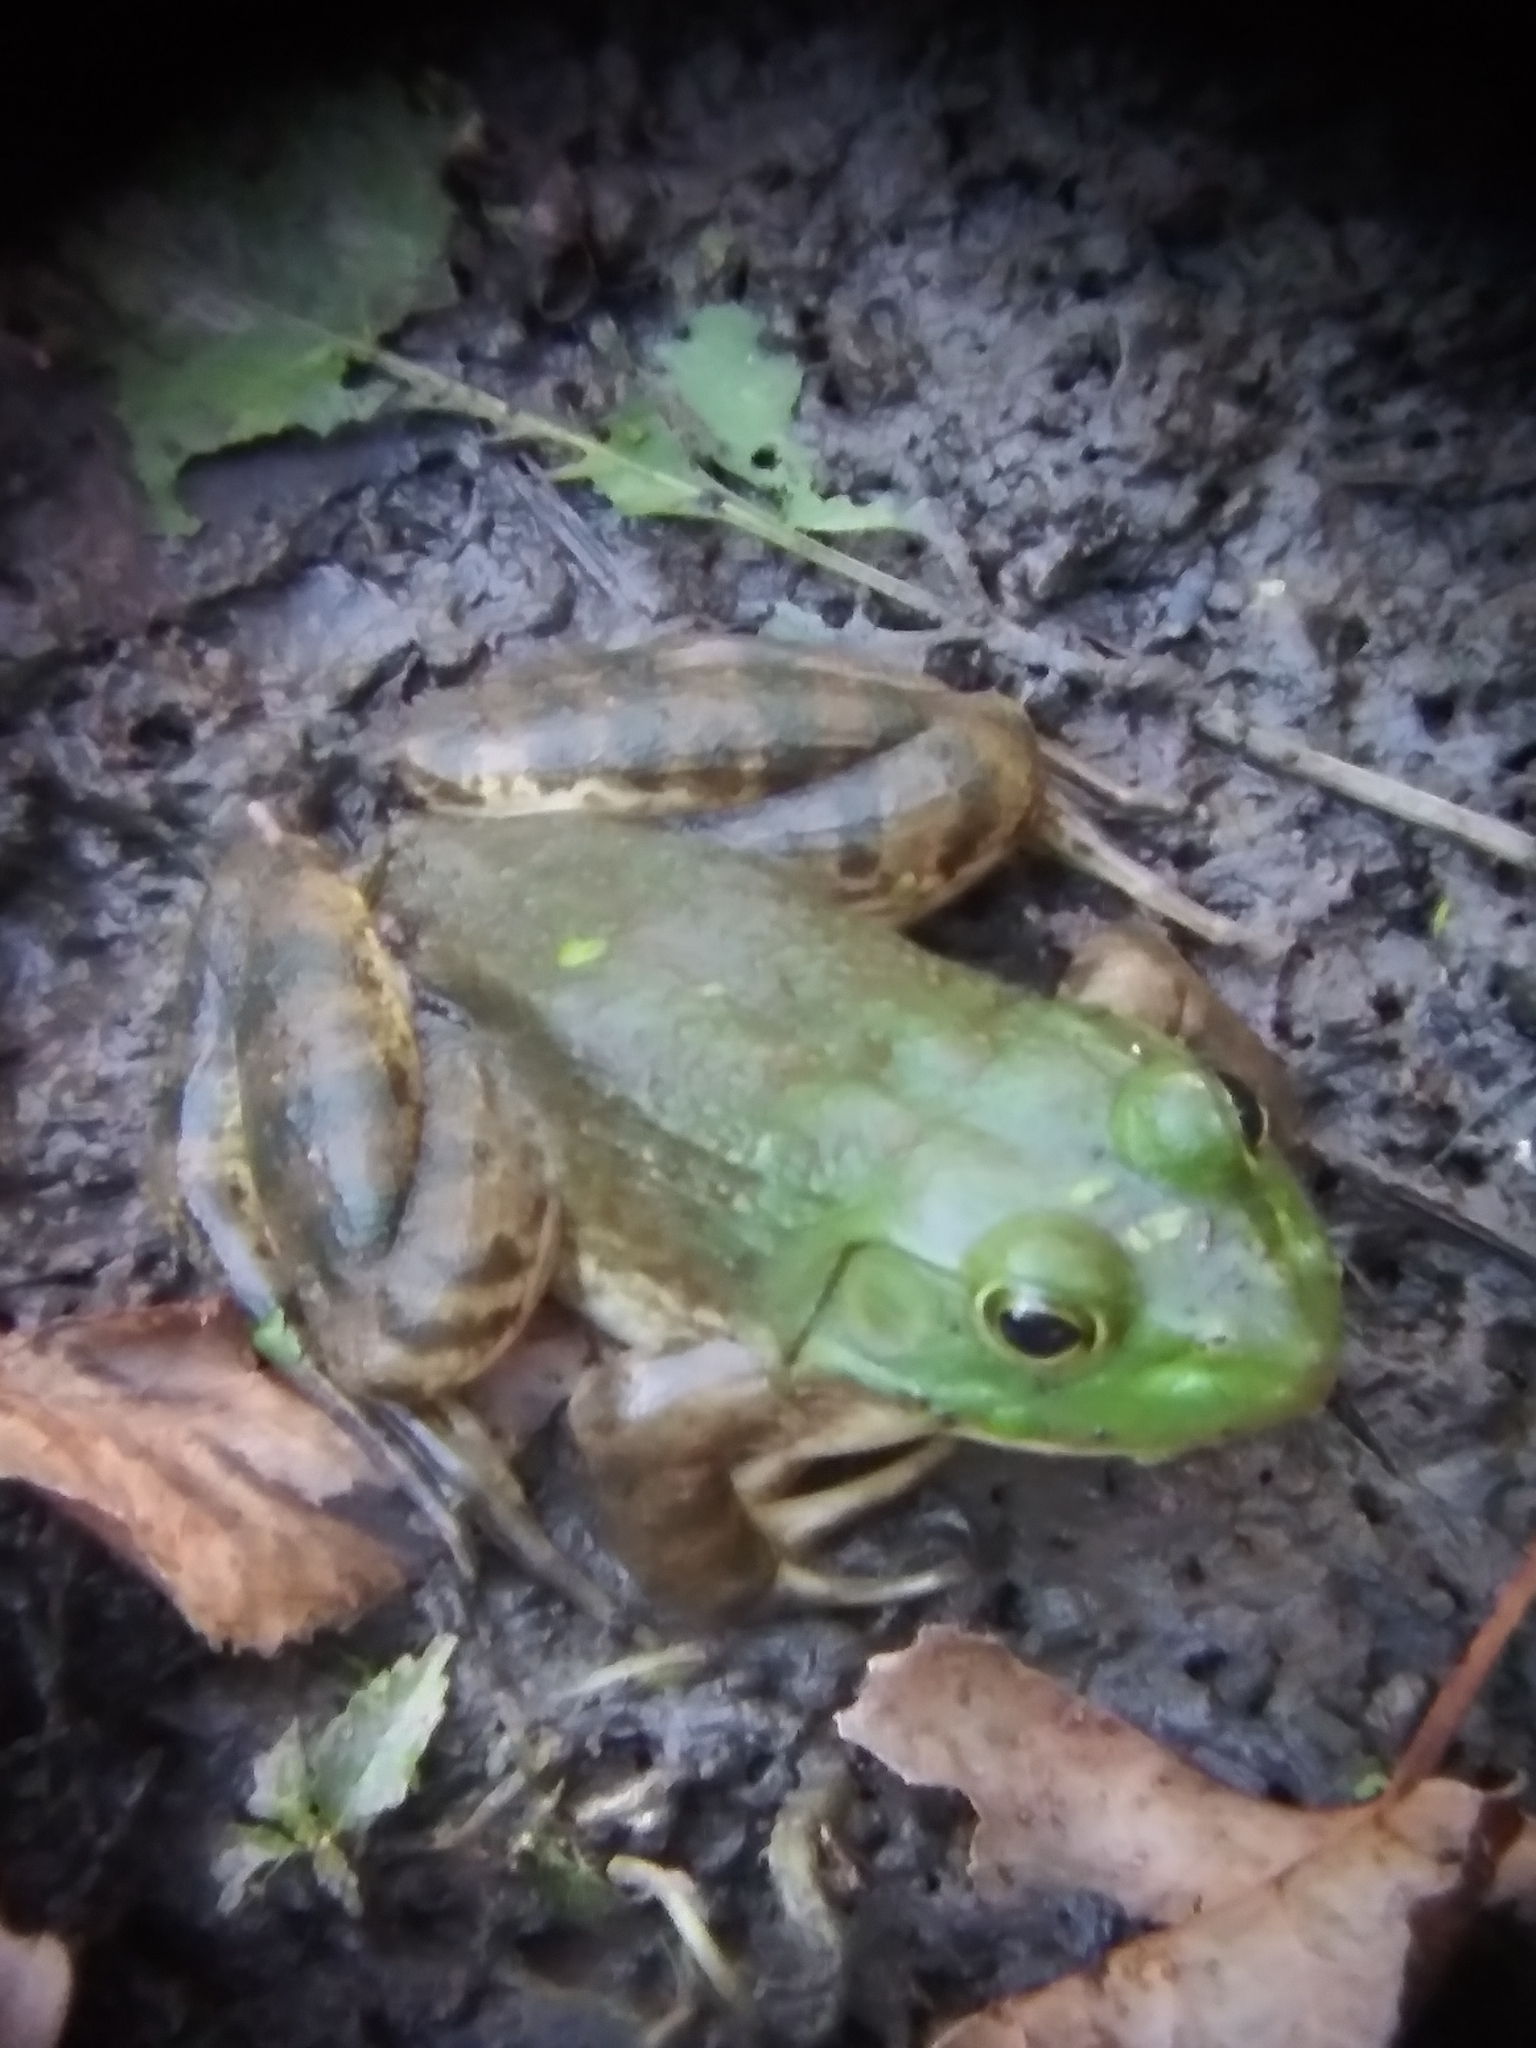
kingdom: Animalia
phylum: Chordata
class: Amphibia
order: Anura
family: Ranidae
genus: Lithobates
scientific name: Lithobates clamitans
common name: Green frog
